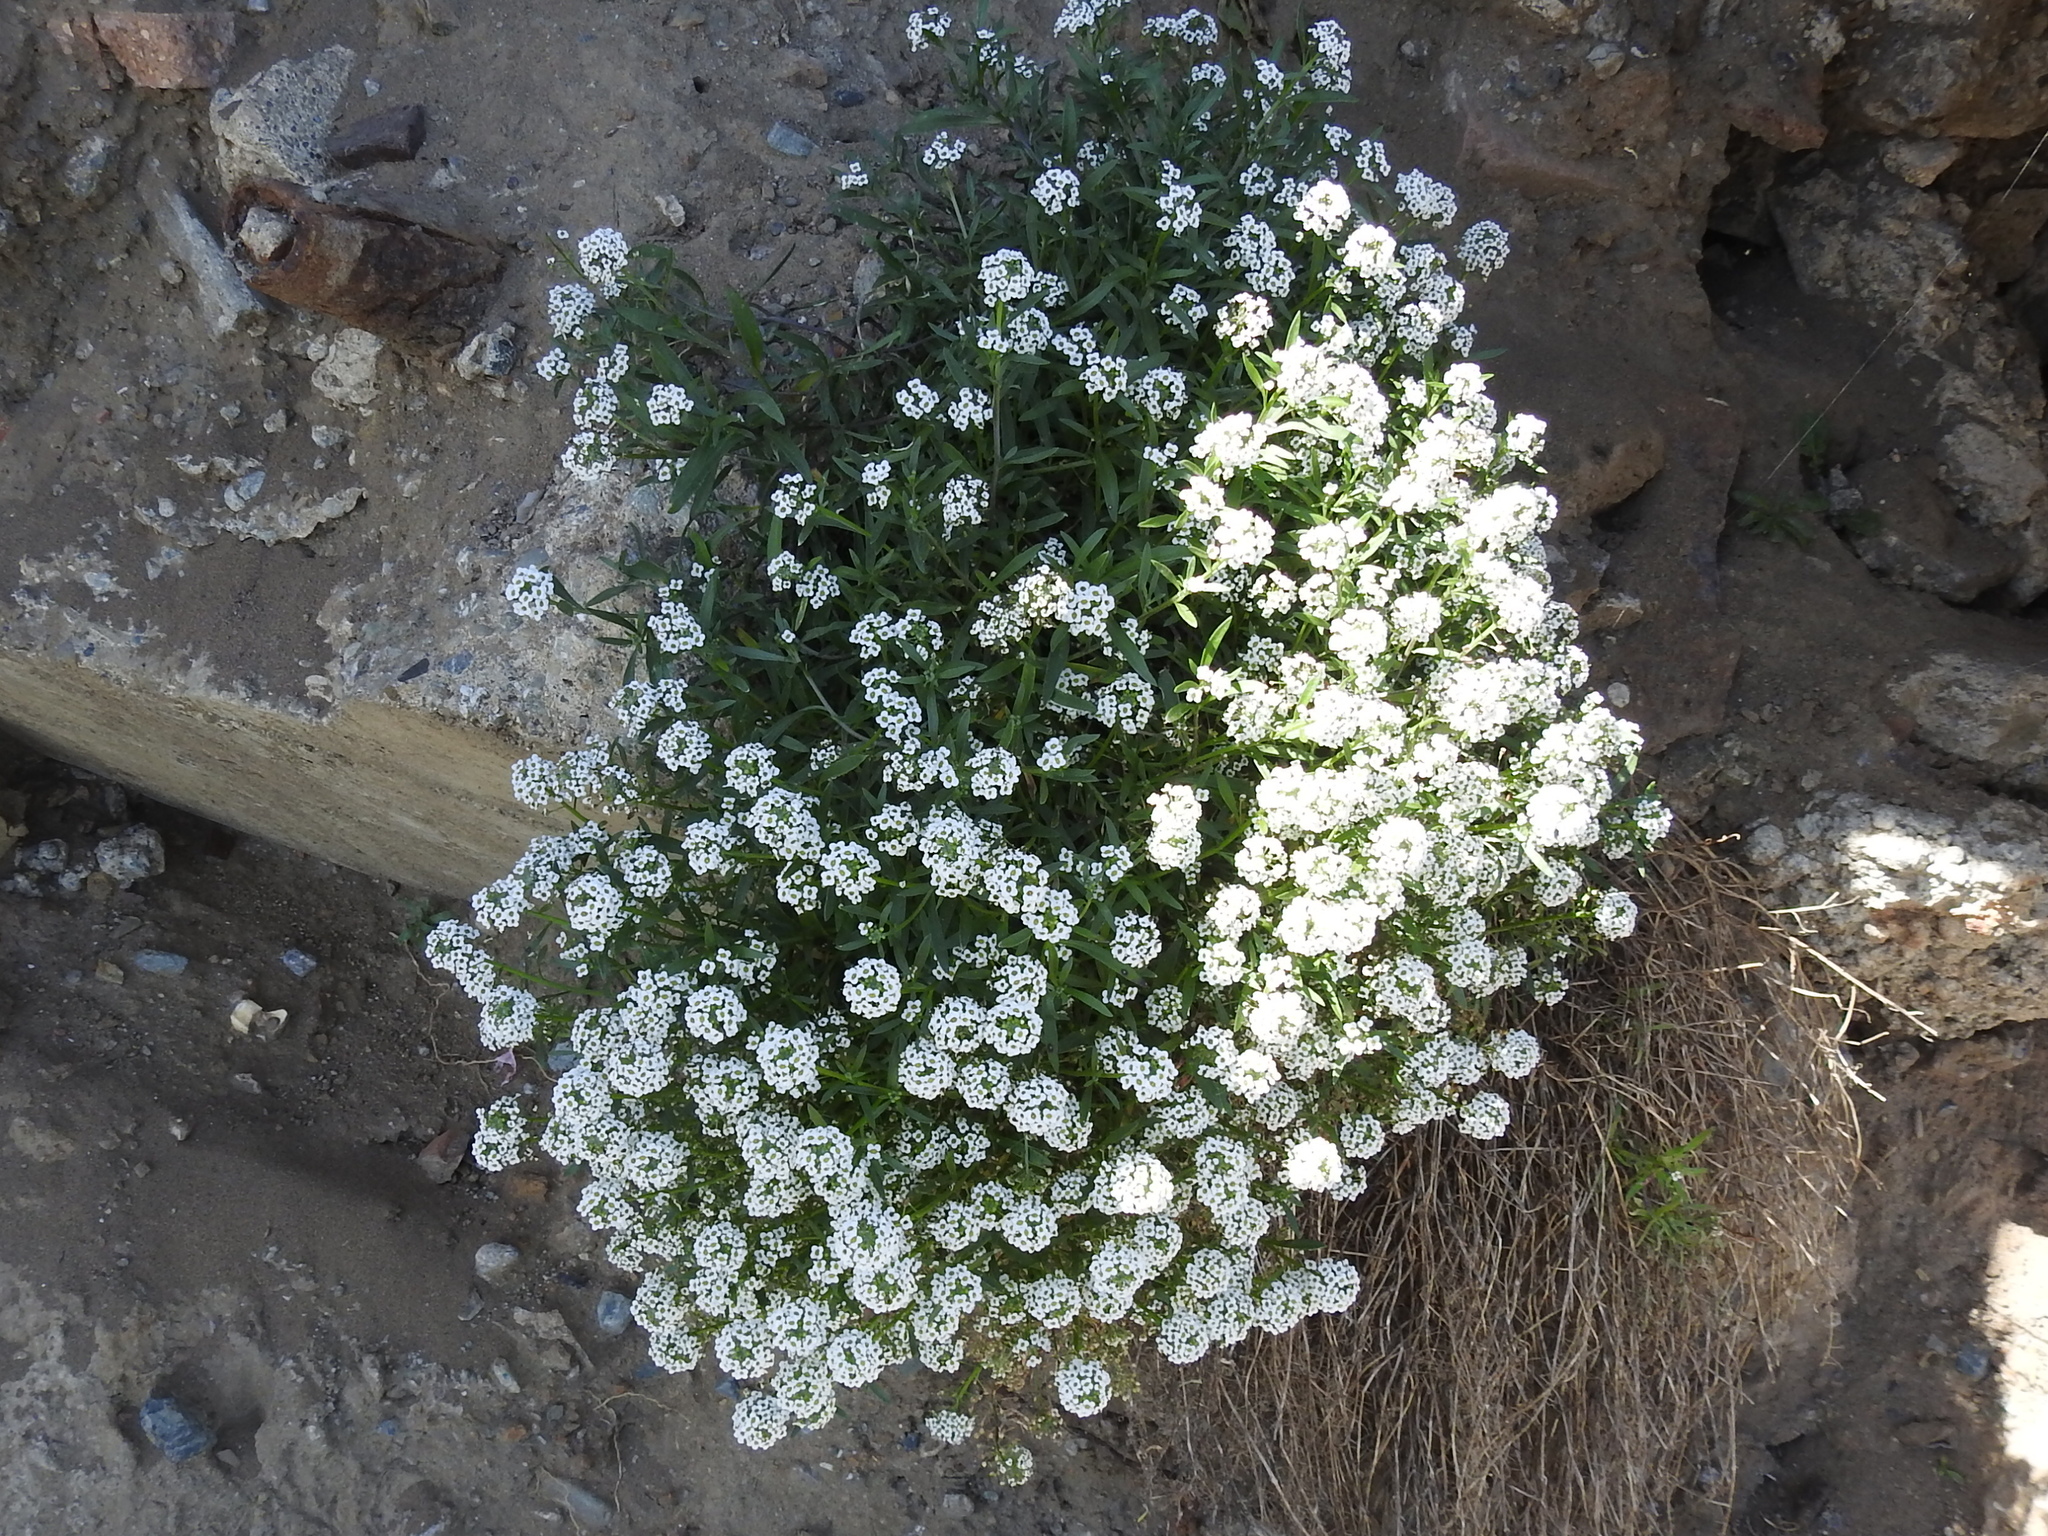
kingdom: Plantae
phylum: Tracheophyta
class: Magnoliopsida
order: Brassicales
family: Brassicaceae
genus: Lobularia
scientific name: Lobularia maritima
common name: Sweet alison
